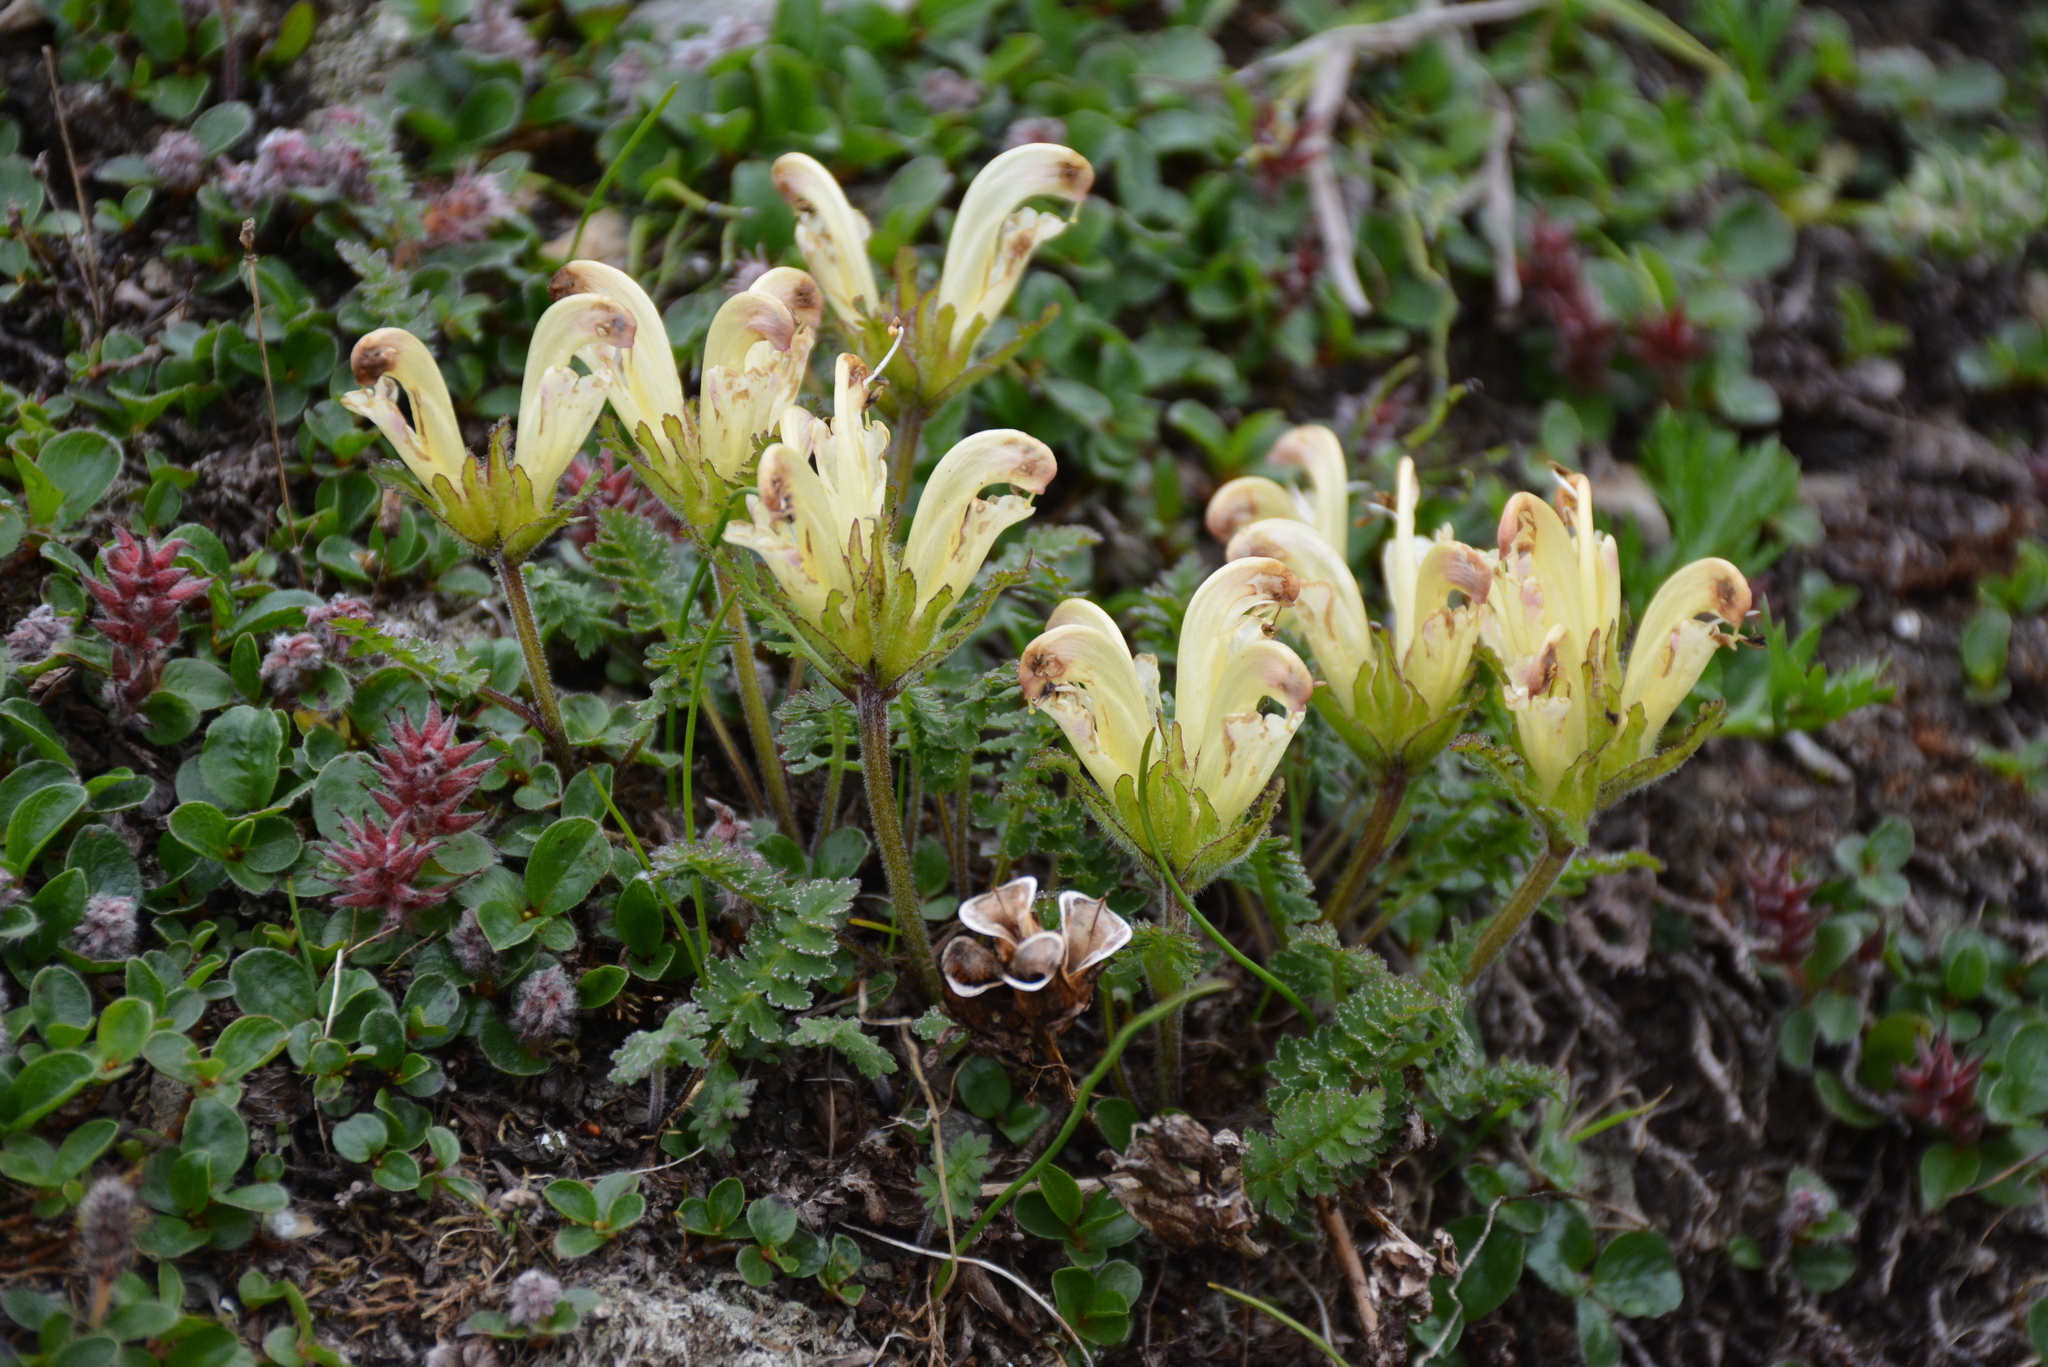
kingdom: Plantae
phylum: Tracheophyta
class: Magnoliopsida
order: Lamiales
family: Orobanchaceae
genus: Pedicularis
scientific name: Pedicularis capitata
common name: Capitate lousewort
